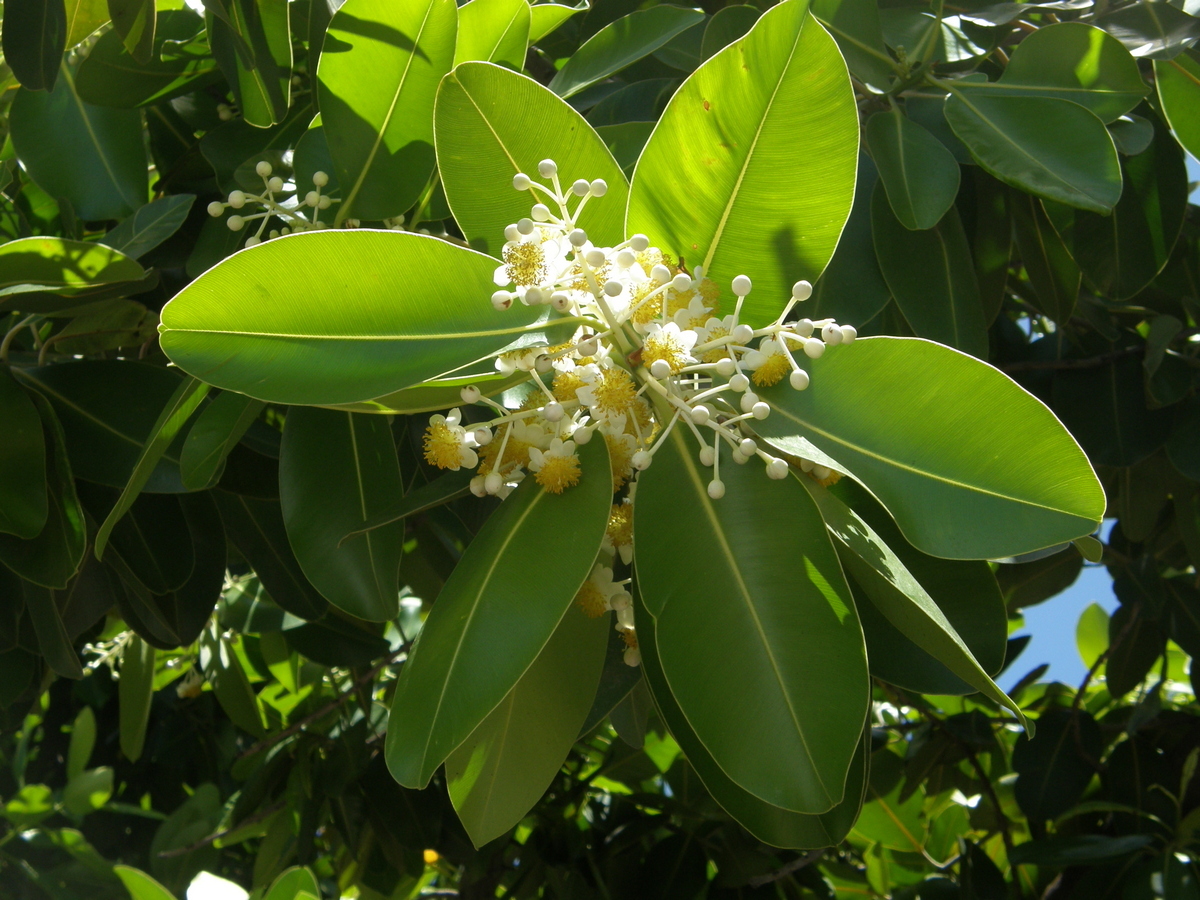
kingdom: Plantae
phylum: Tracheophyta
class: Magnoliopsida
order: Malpighiales
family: Calophyllaceae
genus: Calophyllum
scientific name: Calophyllum inophyllum
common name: Alexandrian laurel
